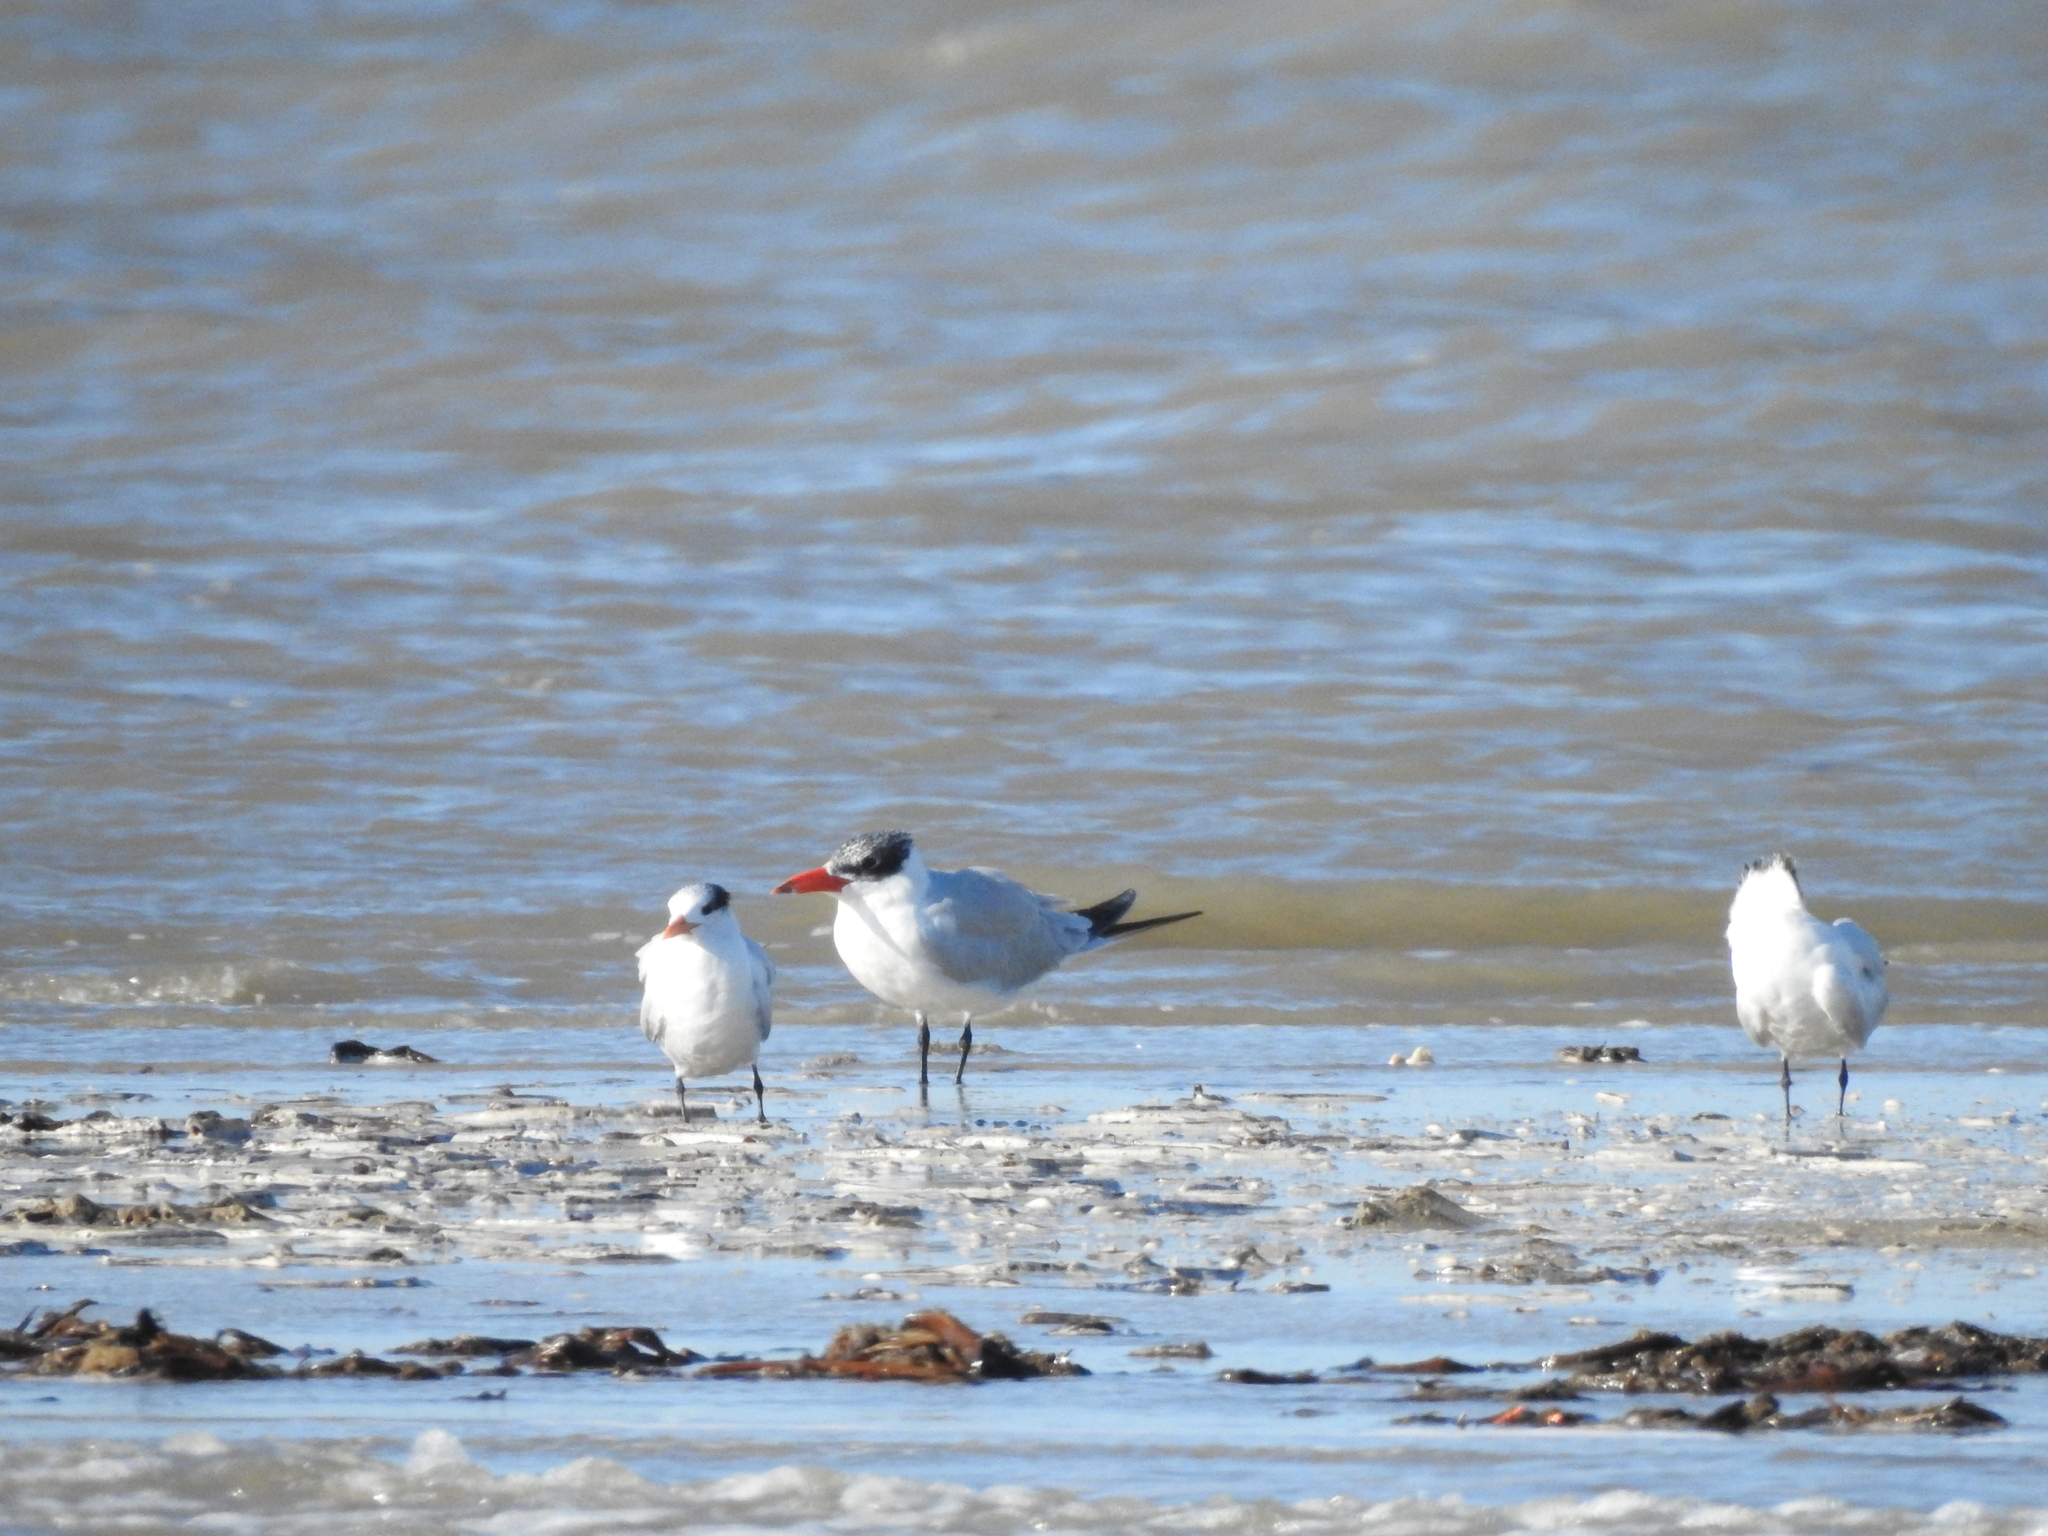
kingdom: Animalia
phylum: Chordata
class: Aves
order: Charadriiformes
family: Laridae
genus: Hydroprogne
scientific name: Hydroprogne caspia
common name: Caspian tern
